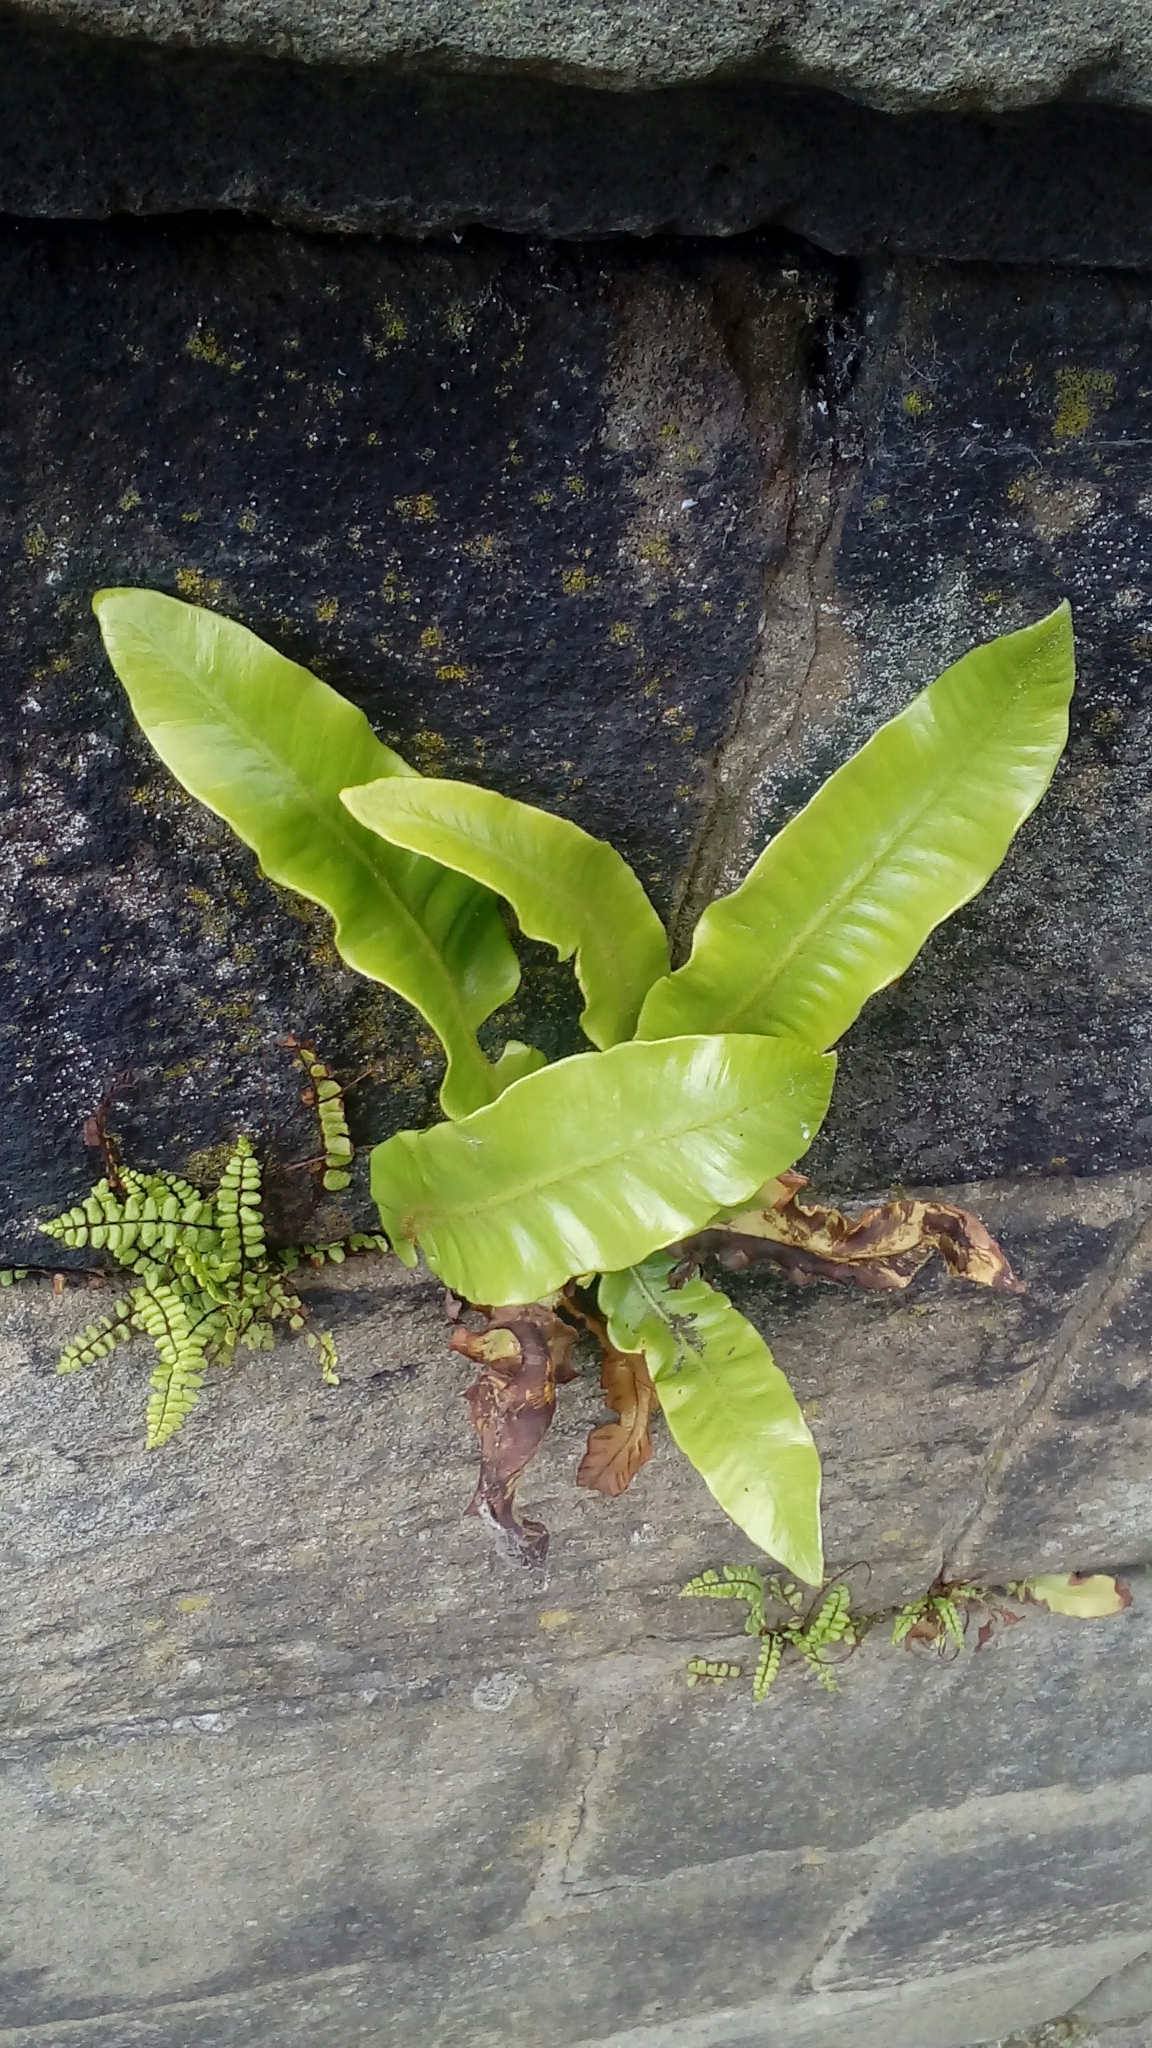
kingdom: Plantae
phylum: Tracheophyta
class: Polypodiopsida
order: Polypodiales
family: Aspleniaceae
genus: Asplenium
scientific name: Asplenium scolopendrium
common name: Hart's-tongue fern
